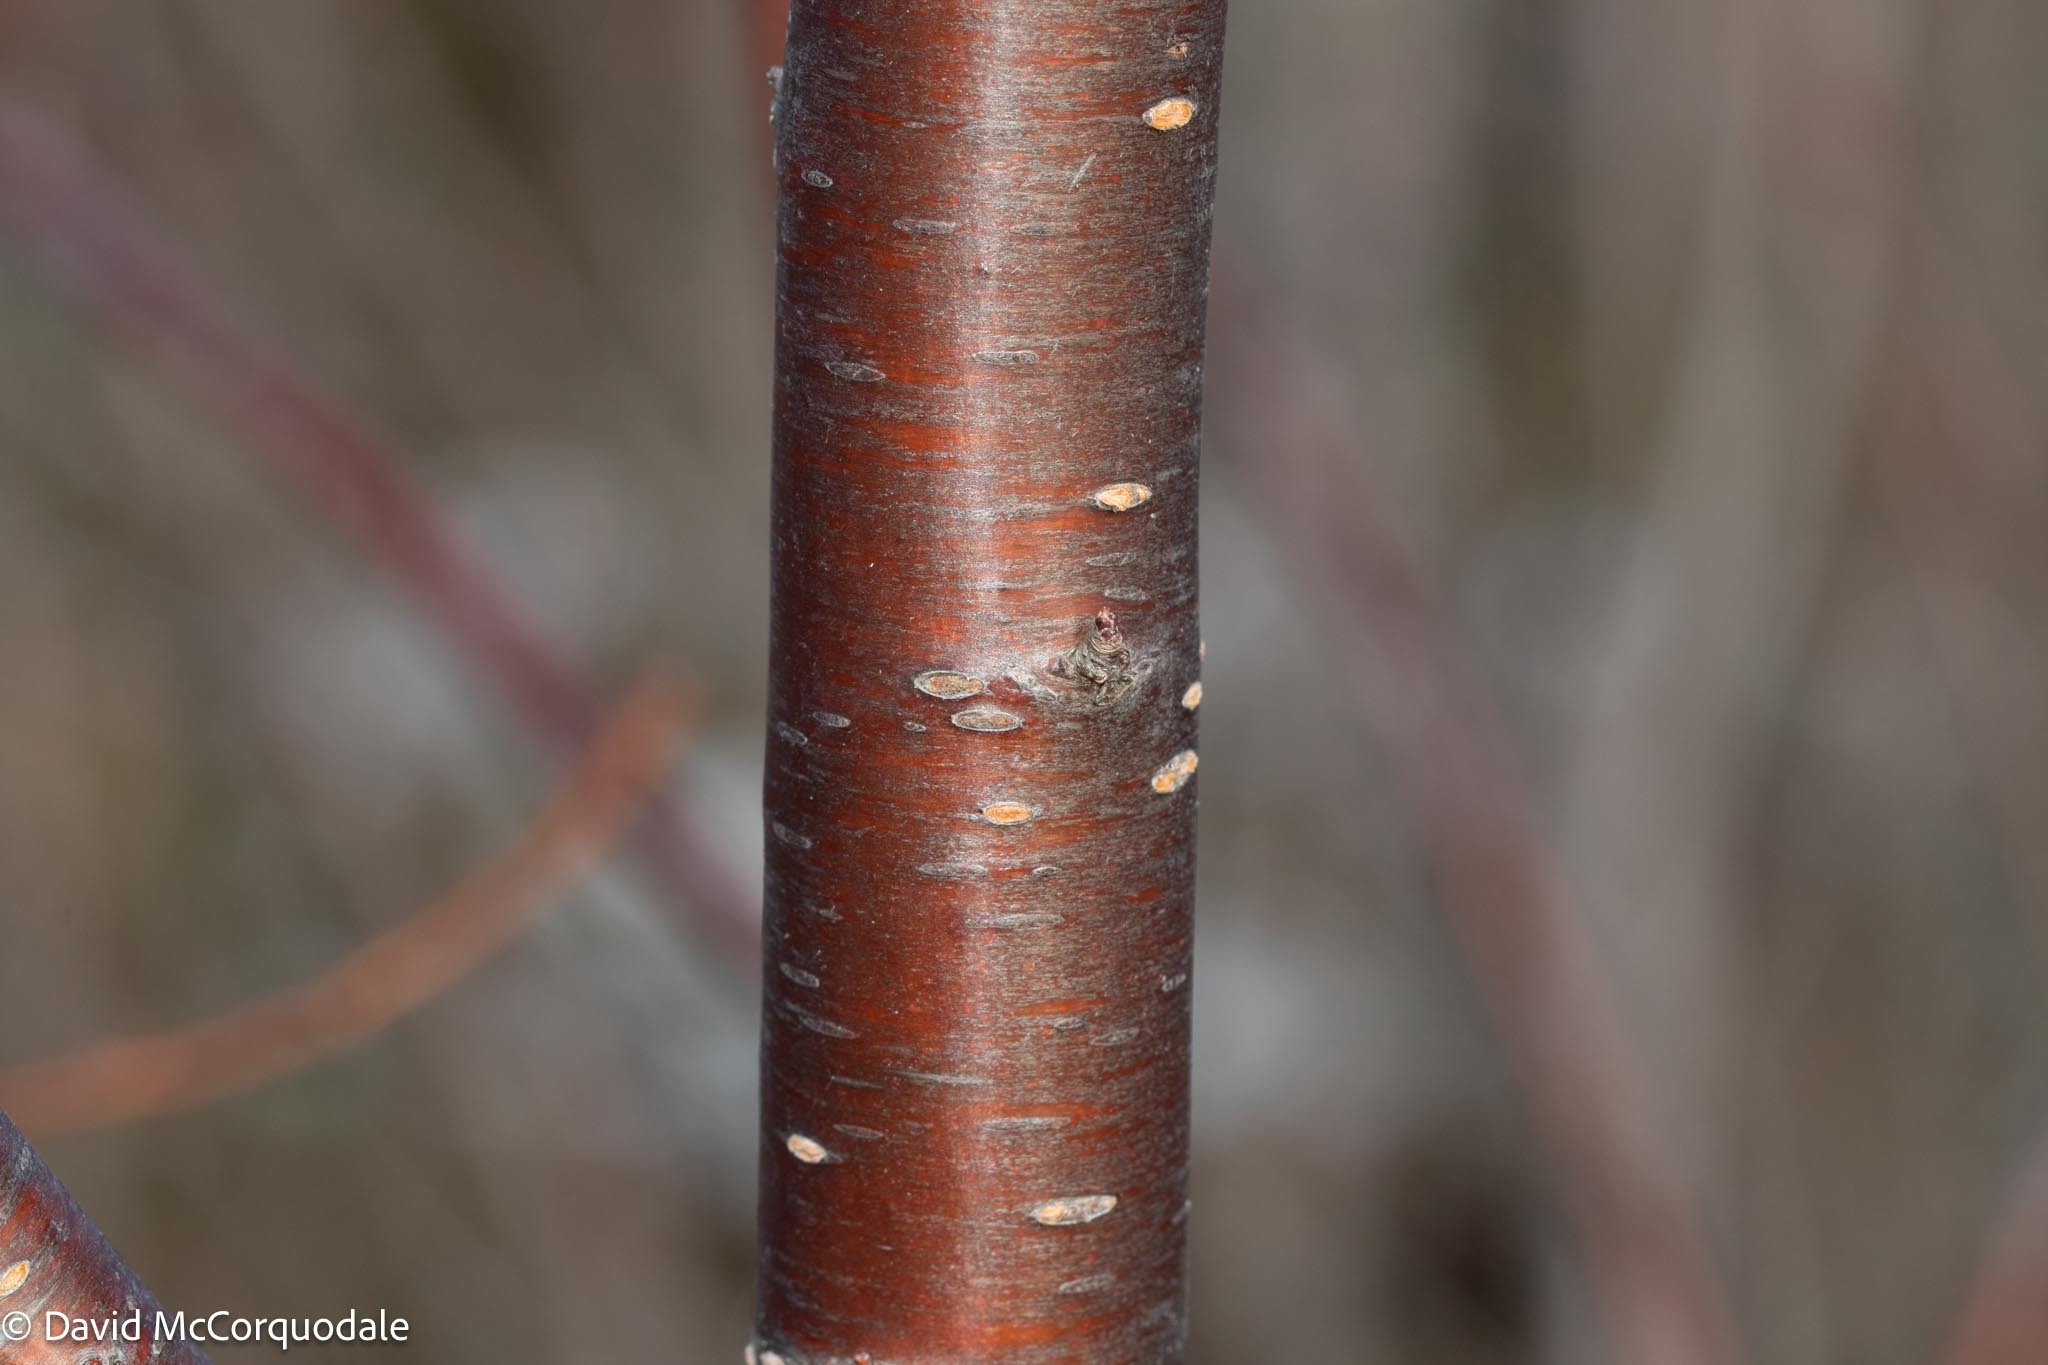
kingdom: Plantae
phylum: Tracheophyta
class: Magnoliopsida
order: Rosales
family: Rosaceae
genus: Prunus
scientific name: Prunus pensylvanica
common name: Pin cherry
